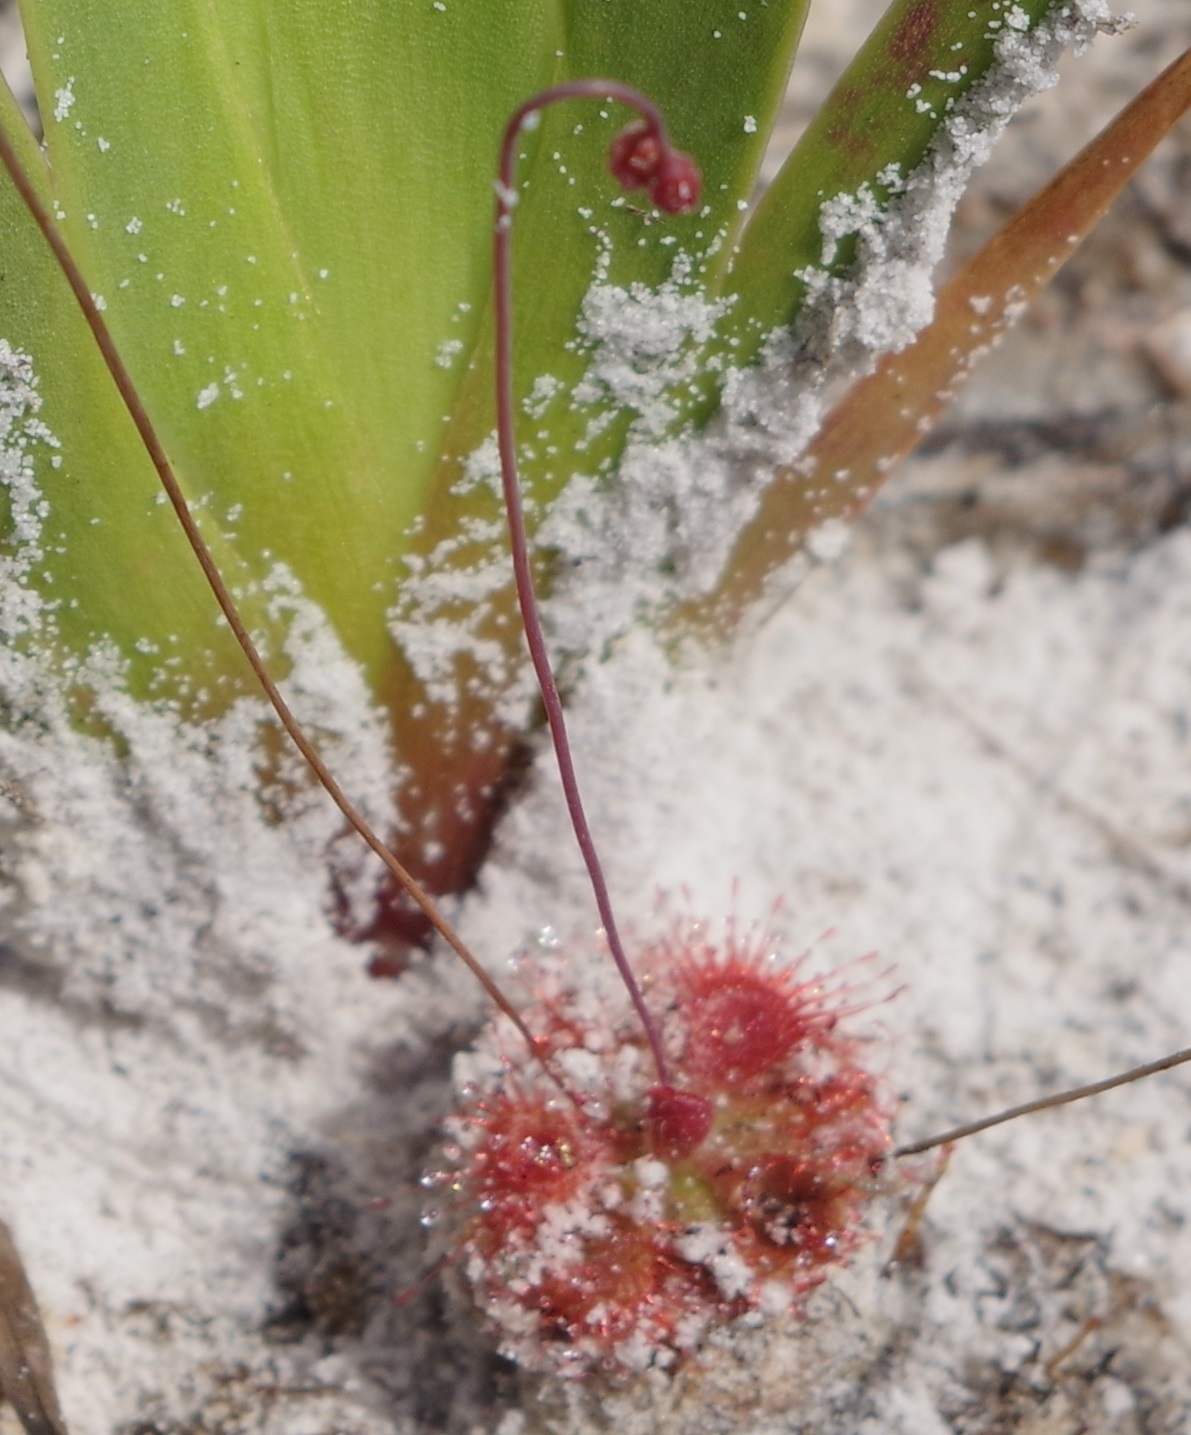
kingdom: Plantae
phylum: Tracheophyta
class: Magnoliopsida
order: Caryophyllales
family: Droseraceae
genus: Drosera
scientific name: Drosera spatulata
